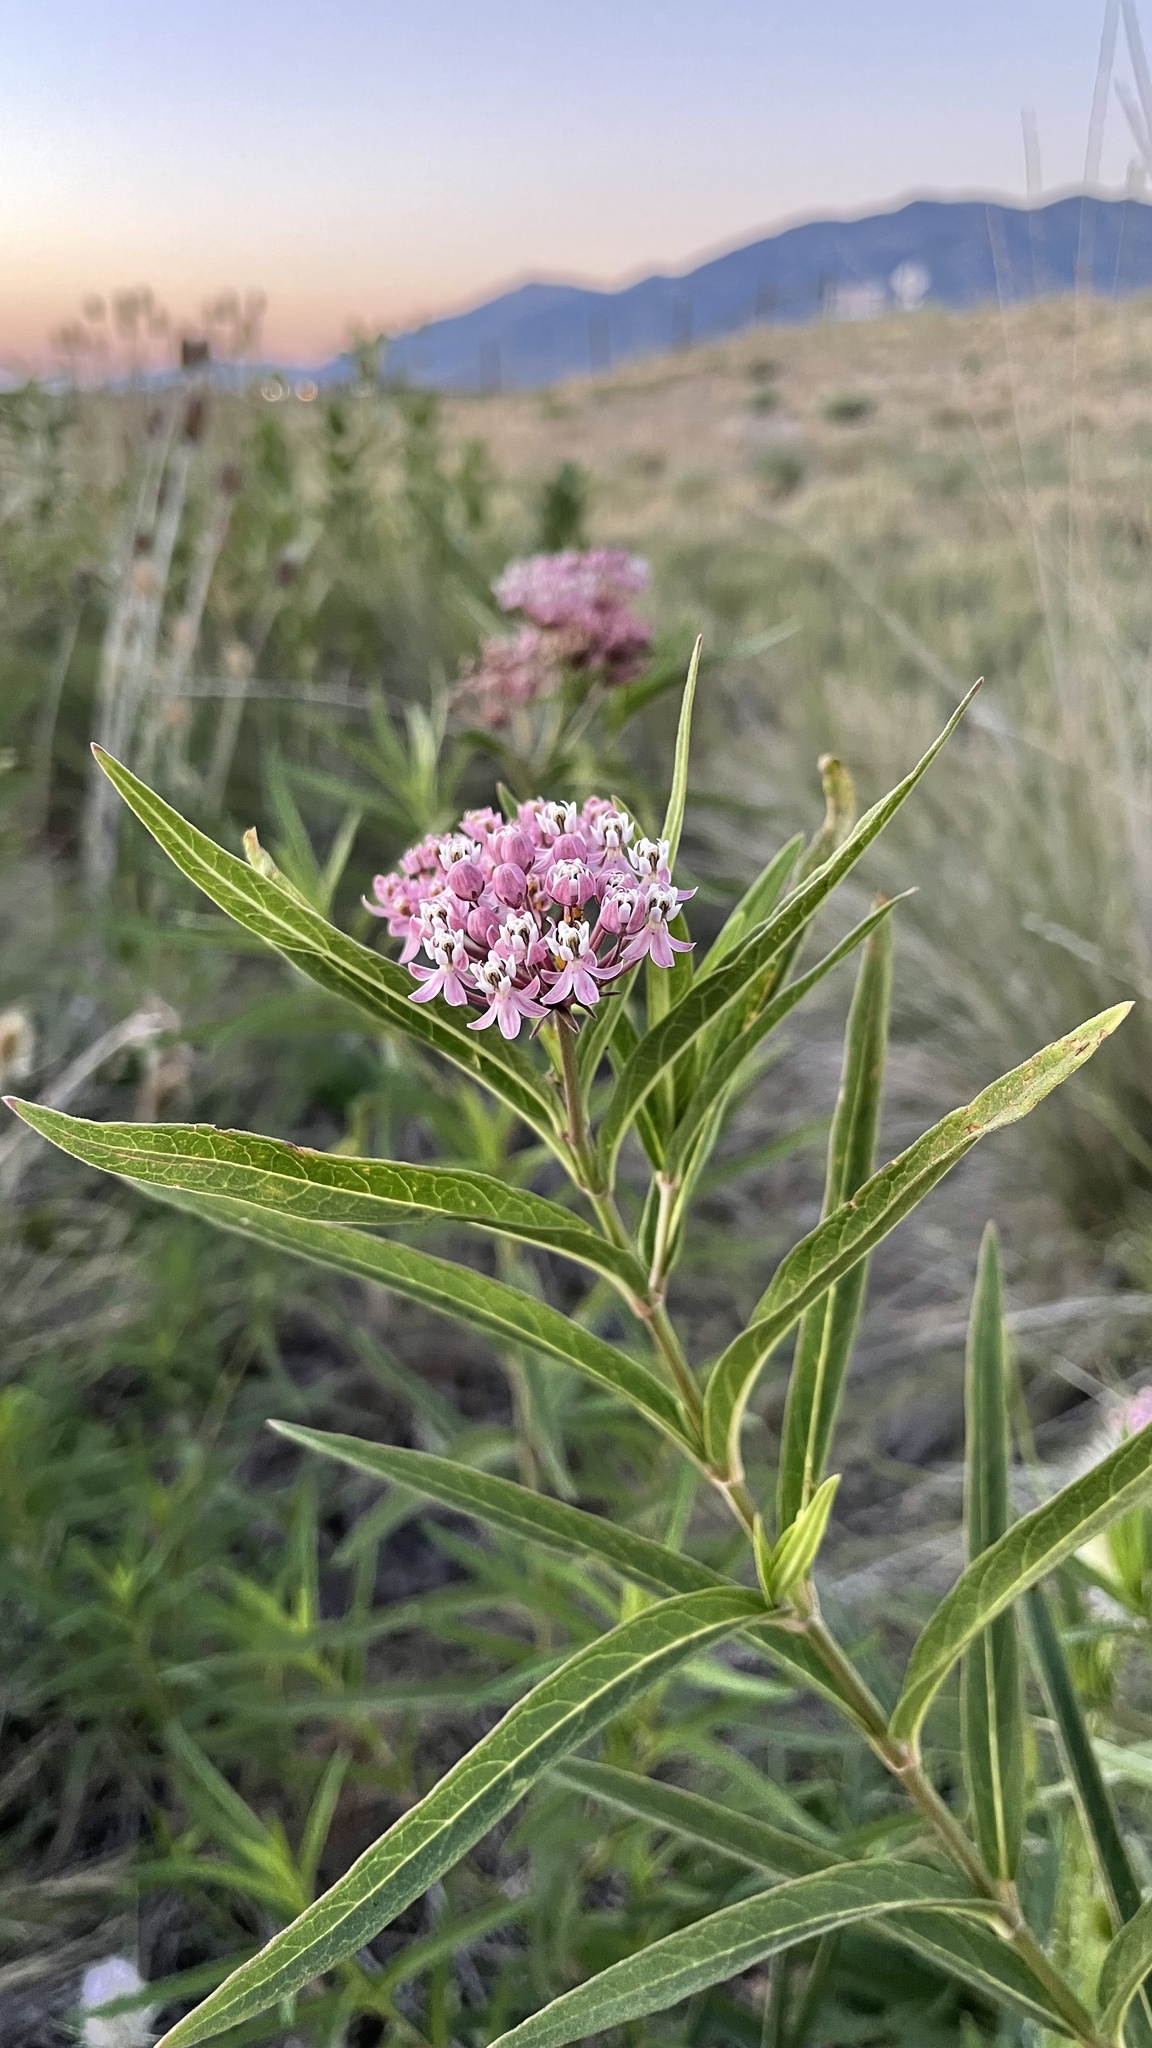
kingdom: Plantae
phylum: Tracheophyta
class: Magnoliopsida
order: Gentianales
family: Apocynaceae
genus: Asclepias
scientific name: Asclepias incarnata
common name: Swamp milkweed
